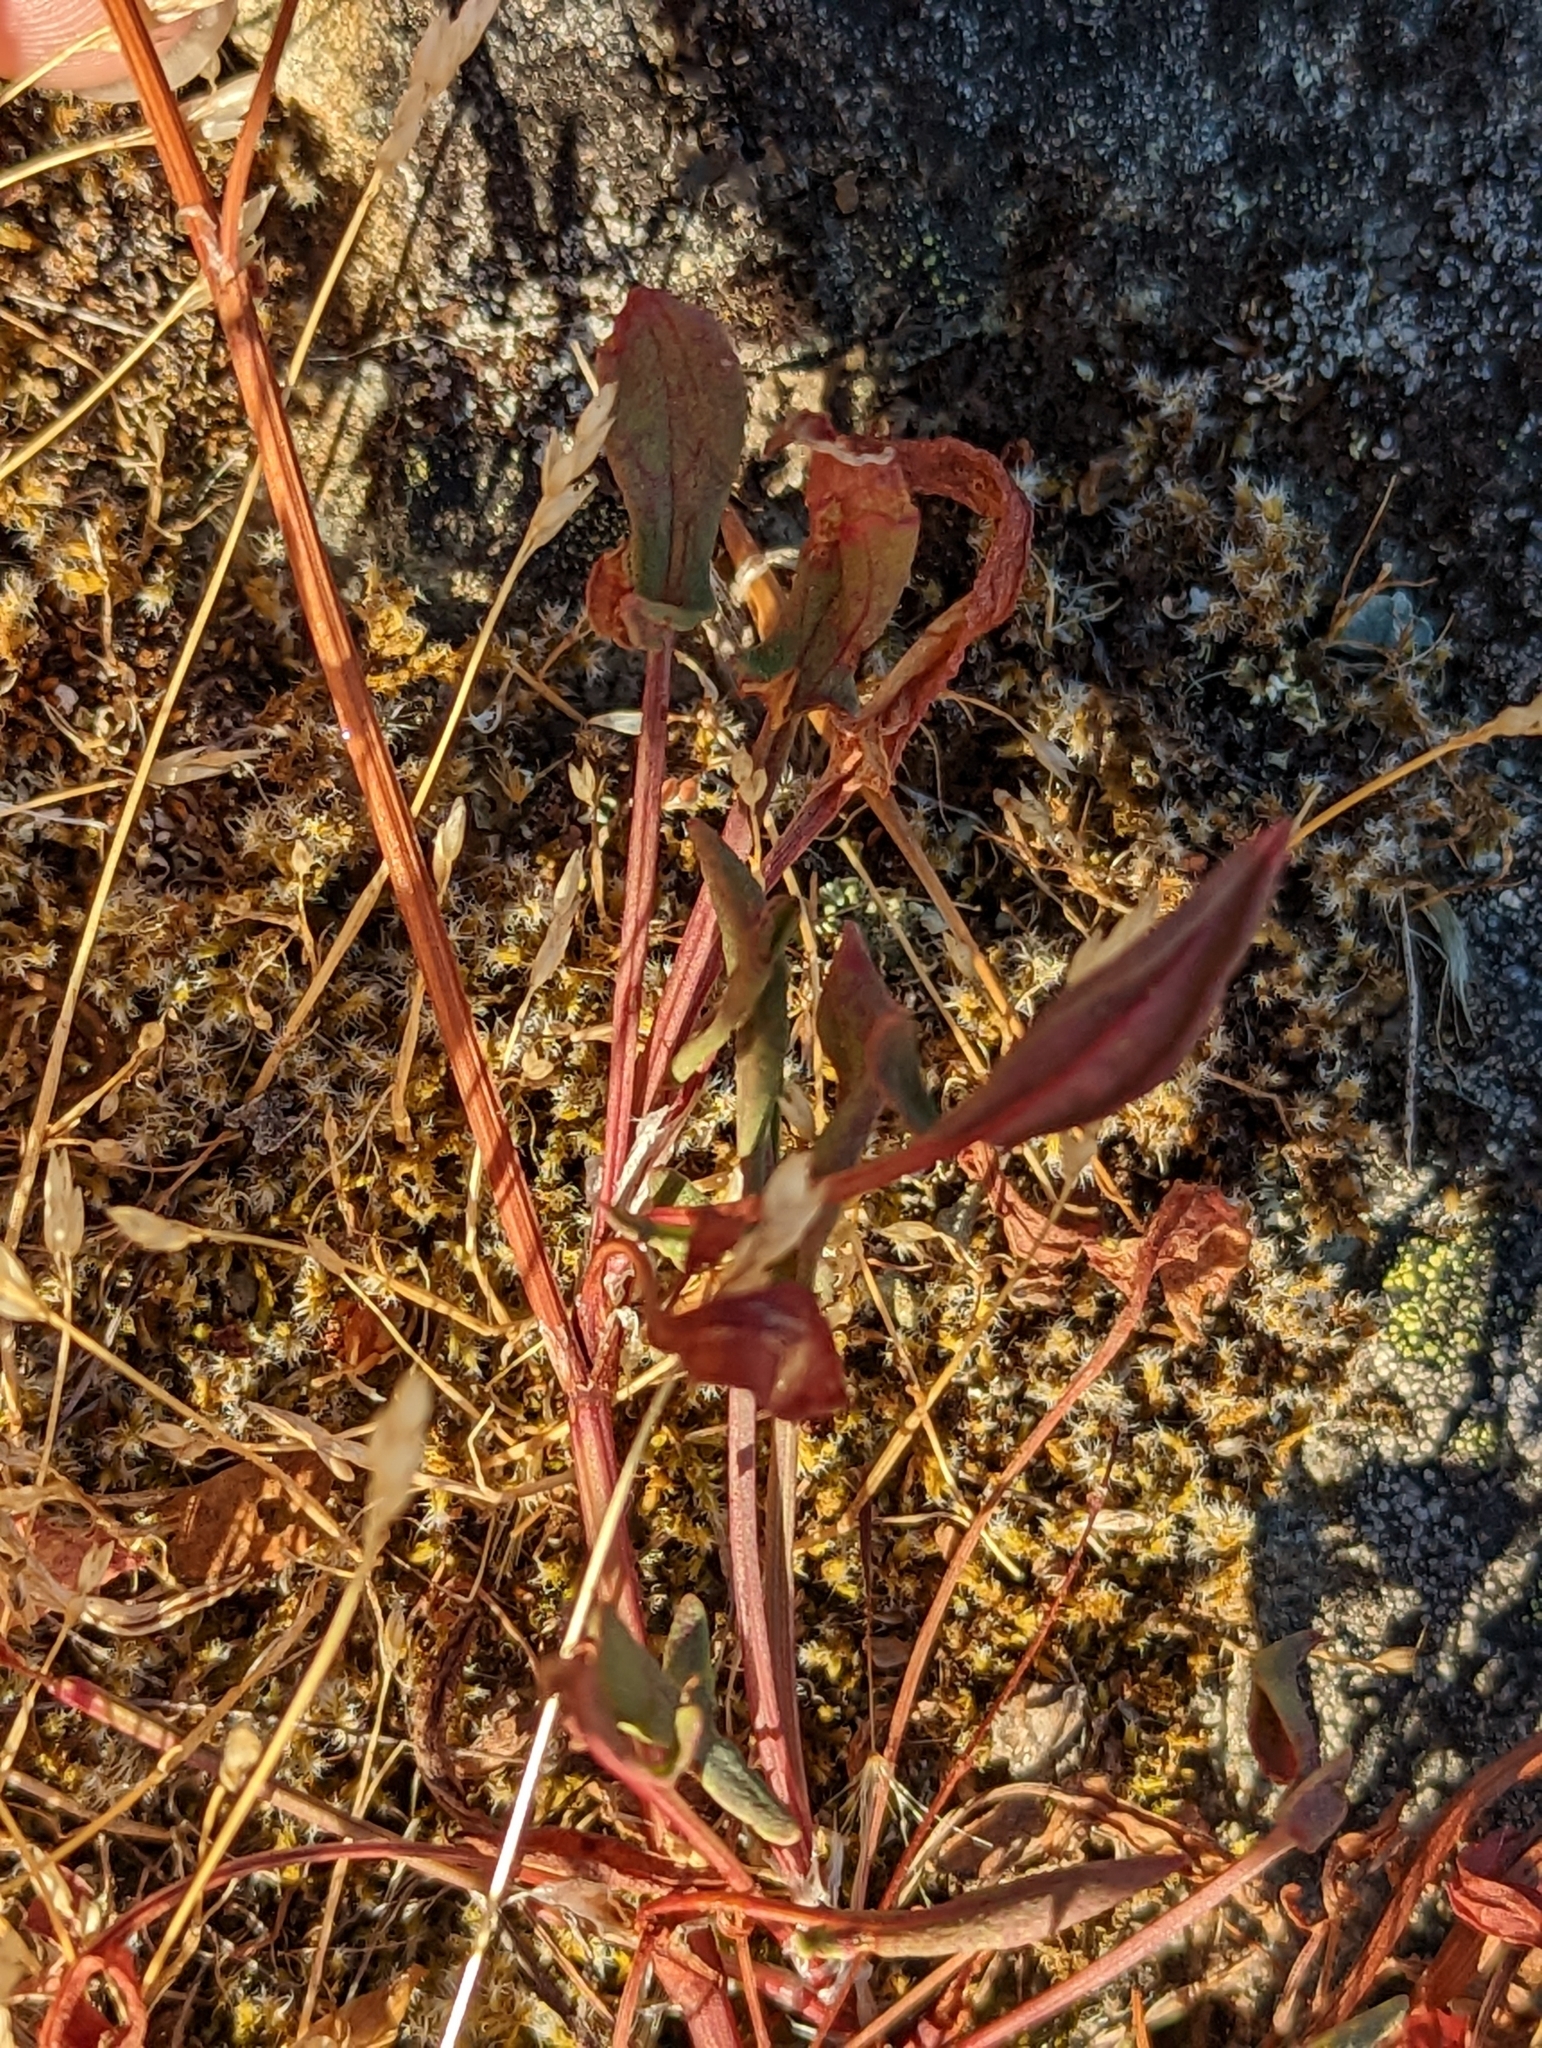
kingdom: Plantae
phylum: Tracheophyta
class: Magnoliopsida
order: Caryophyllales
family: Polygonaceae
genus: Rumex
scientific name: Rumex acetosella
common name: Common sheep sorrel
